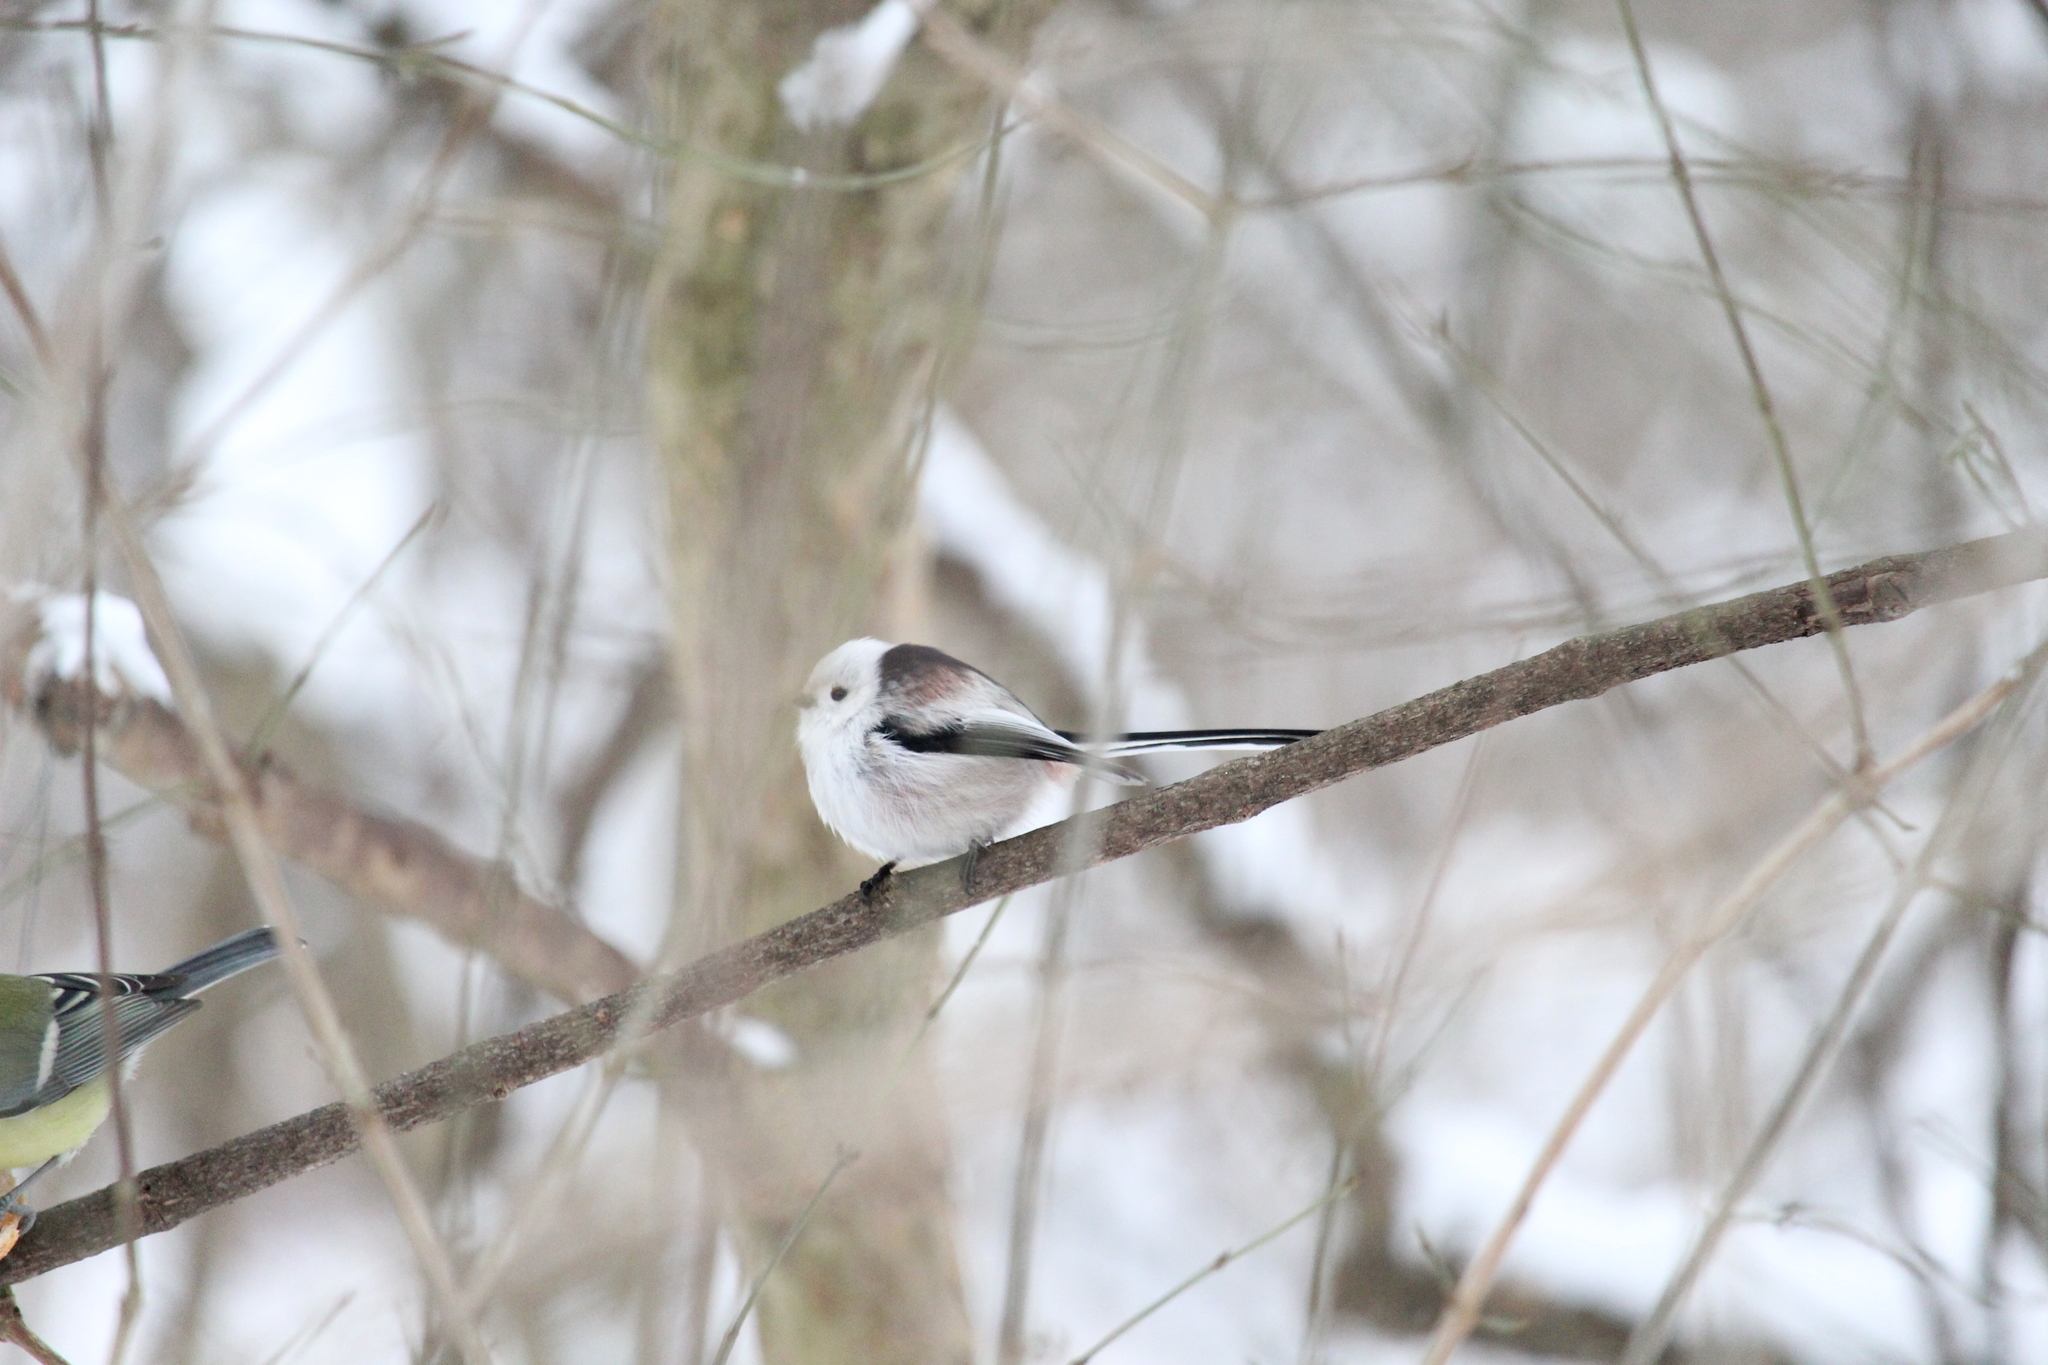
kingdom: Animalia
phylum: Chordata
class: Aves
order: Passeriformes
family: Aegithalidae
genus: Aegithalos
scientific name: Aegithalos caudatus
